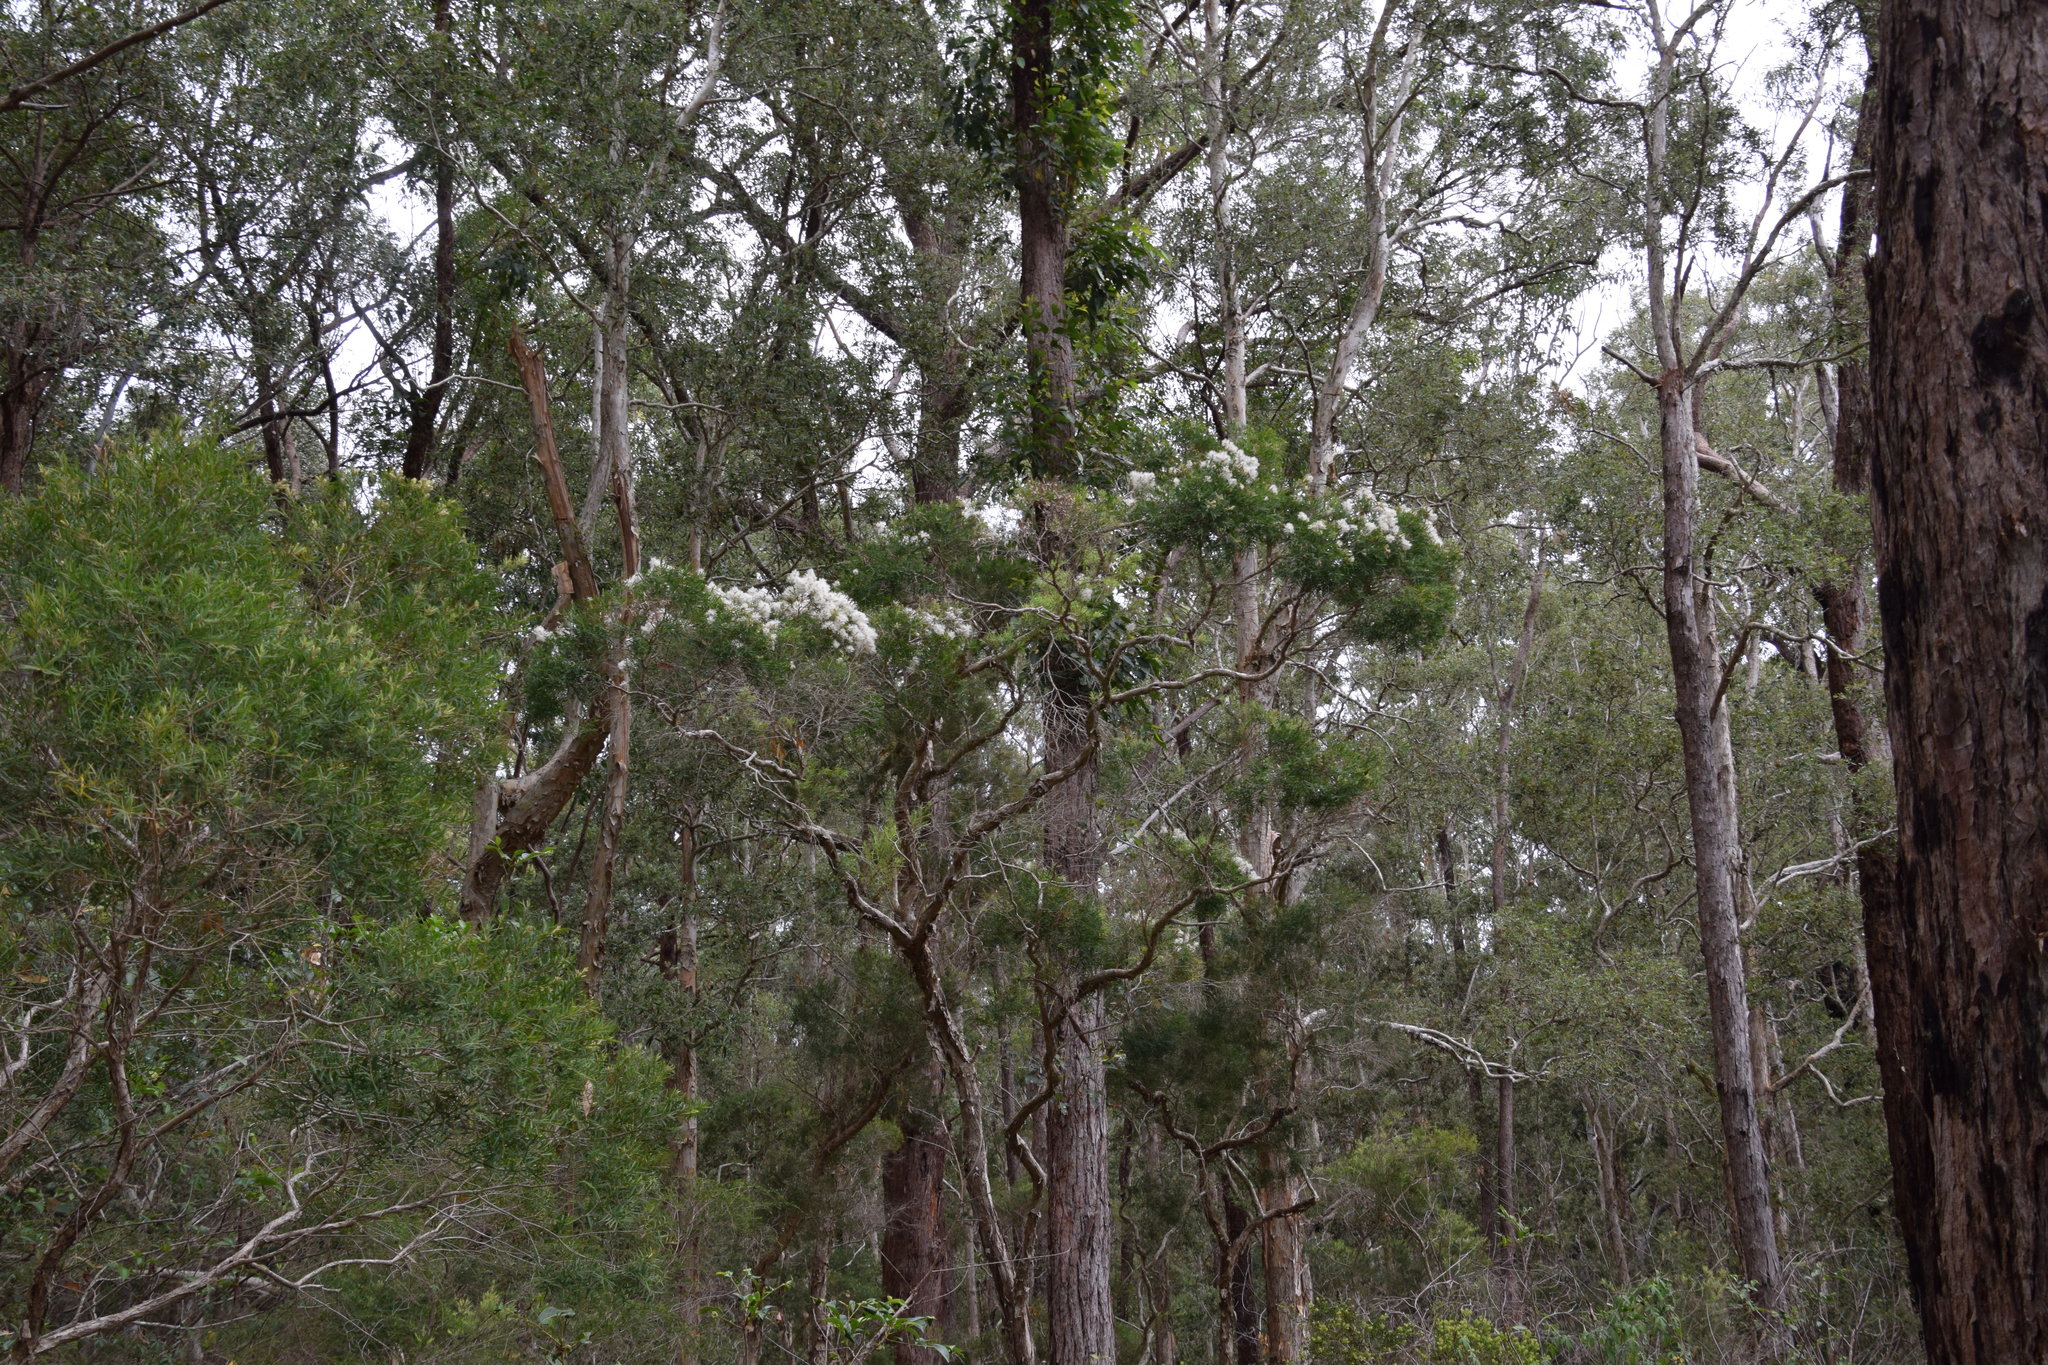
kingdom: Plantae
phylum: Tracheophyta
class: Magnoliopsida
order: Myrtales
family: Myrtaceae
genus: Melaleuca
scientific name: Melaleuca linariifolia
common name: Cajeput tree
